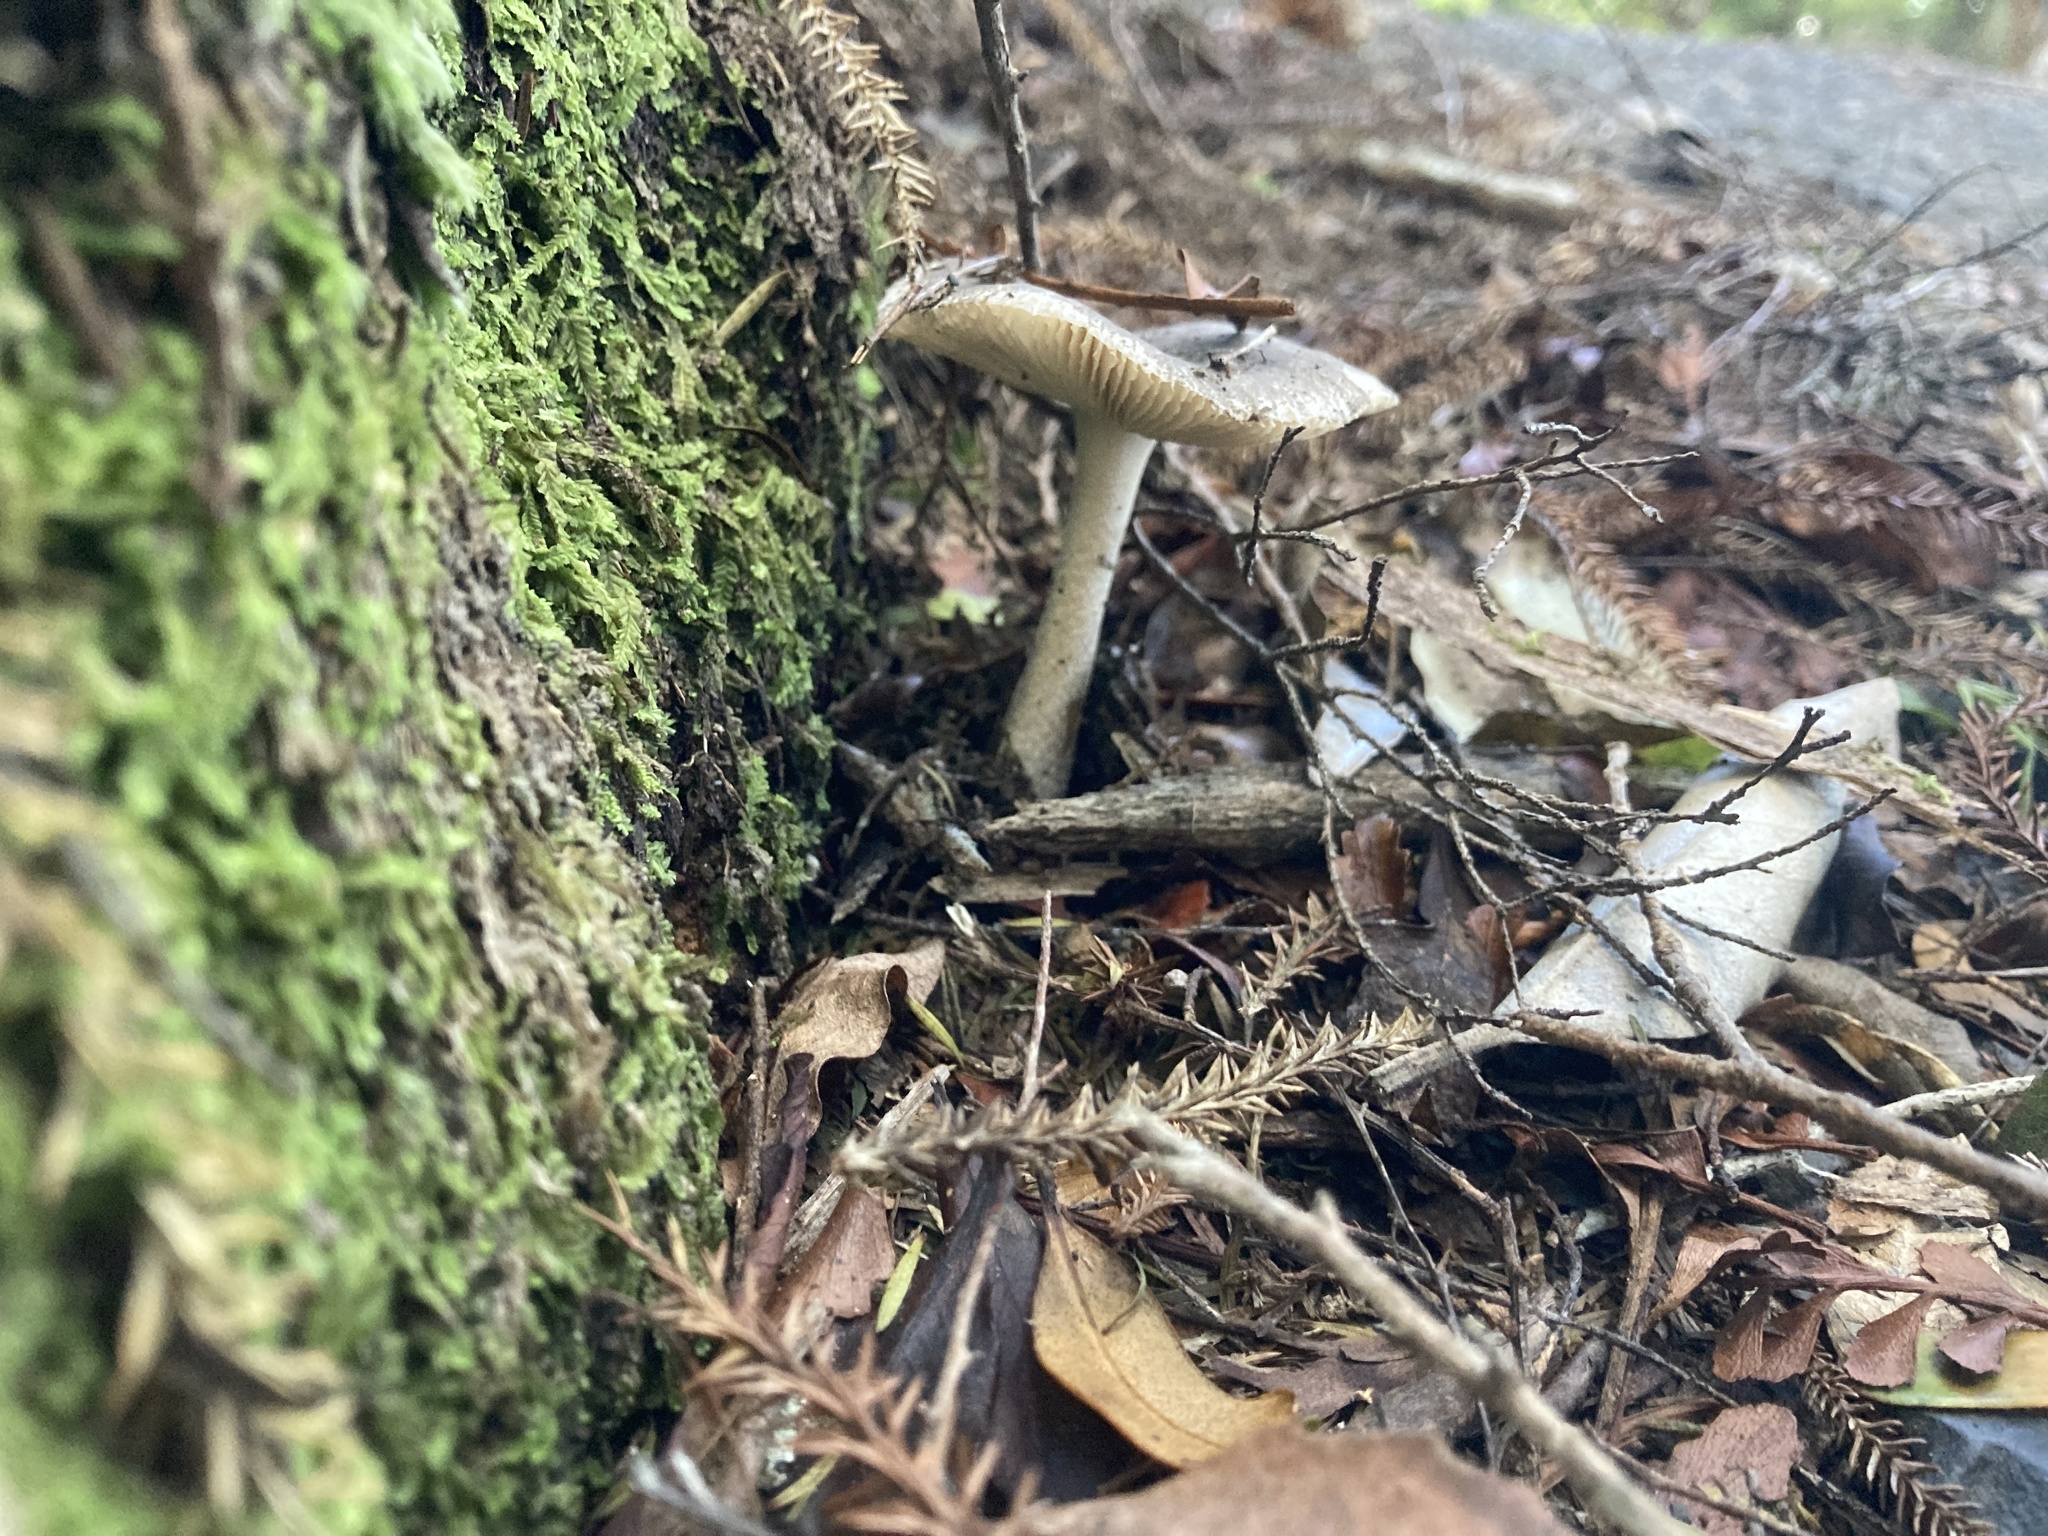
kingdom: Fungi
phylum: Basidiomycota
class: Agaricomycetes
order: Agaricales
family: Amanitaceae
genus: Amanita
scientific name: Amanita nehuta
